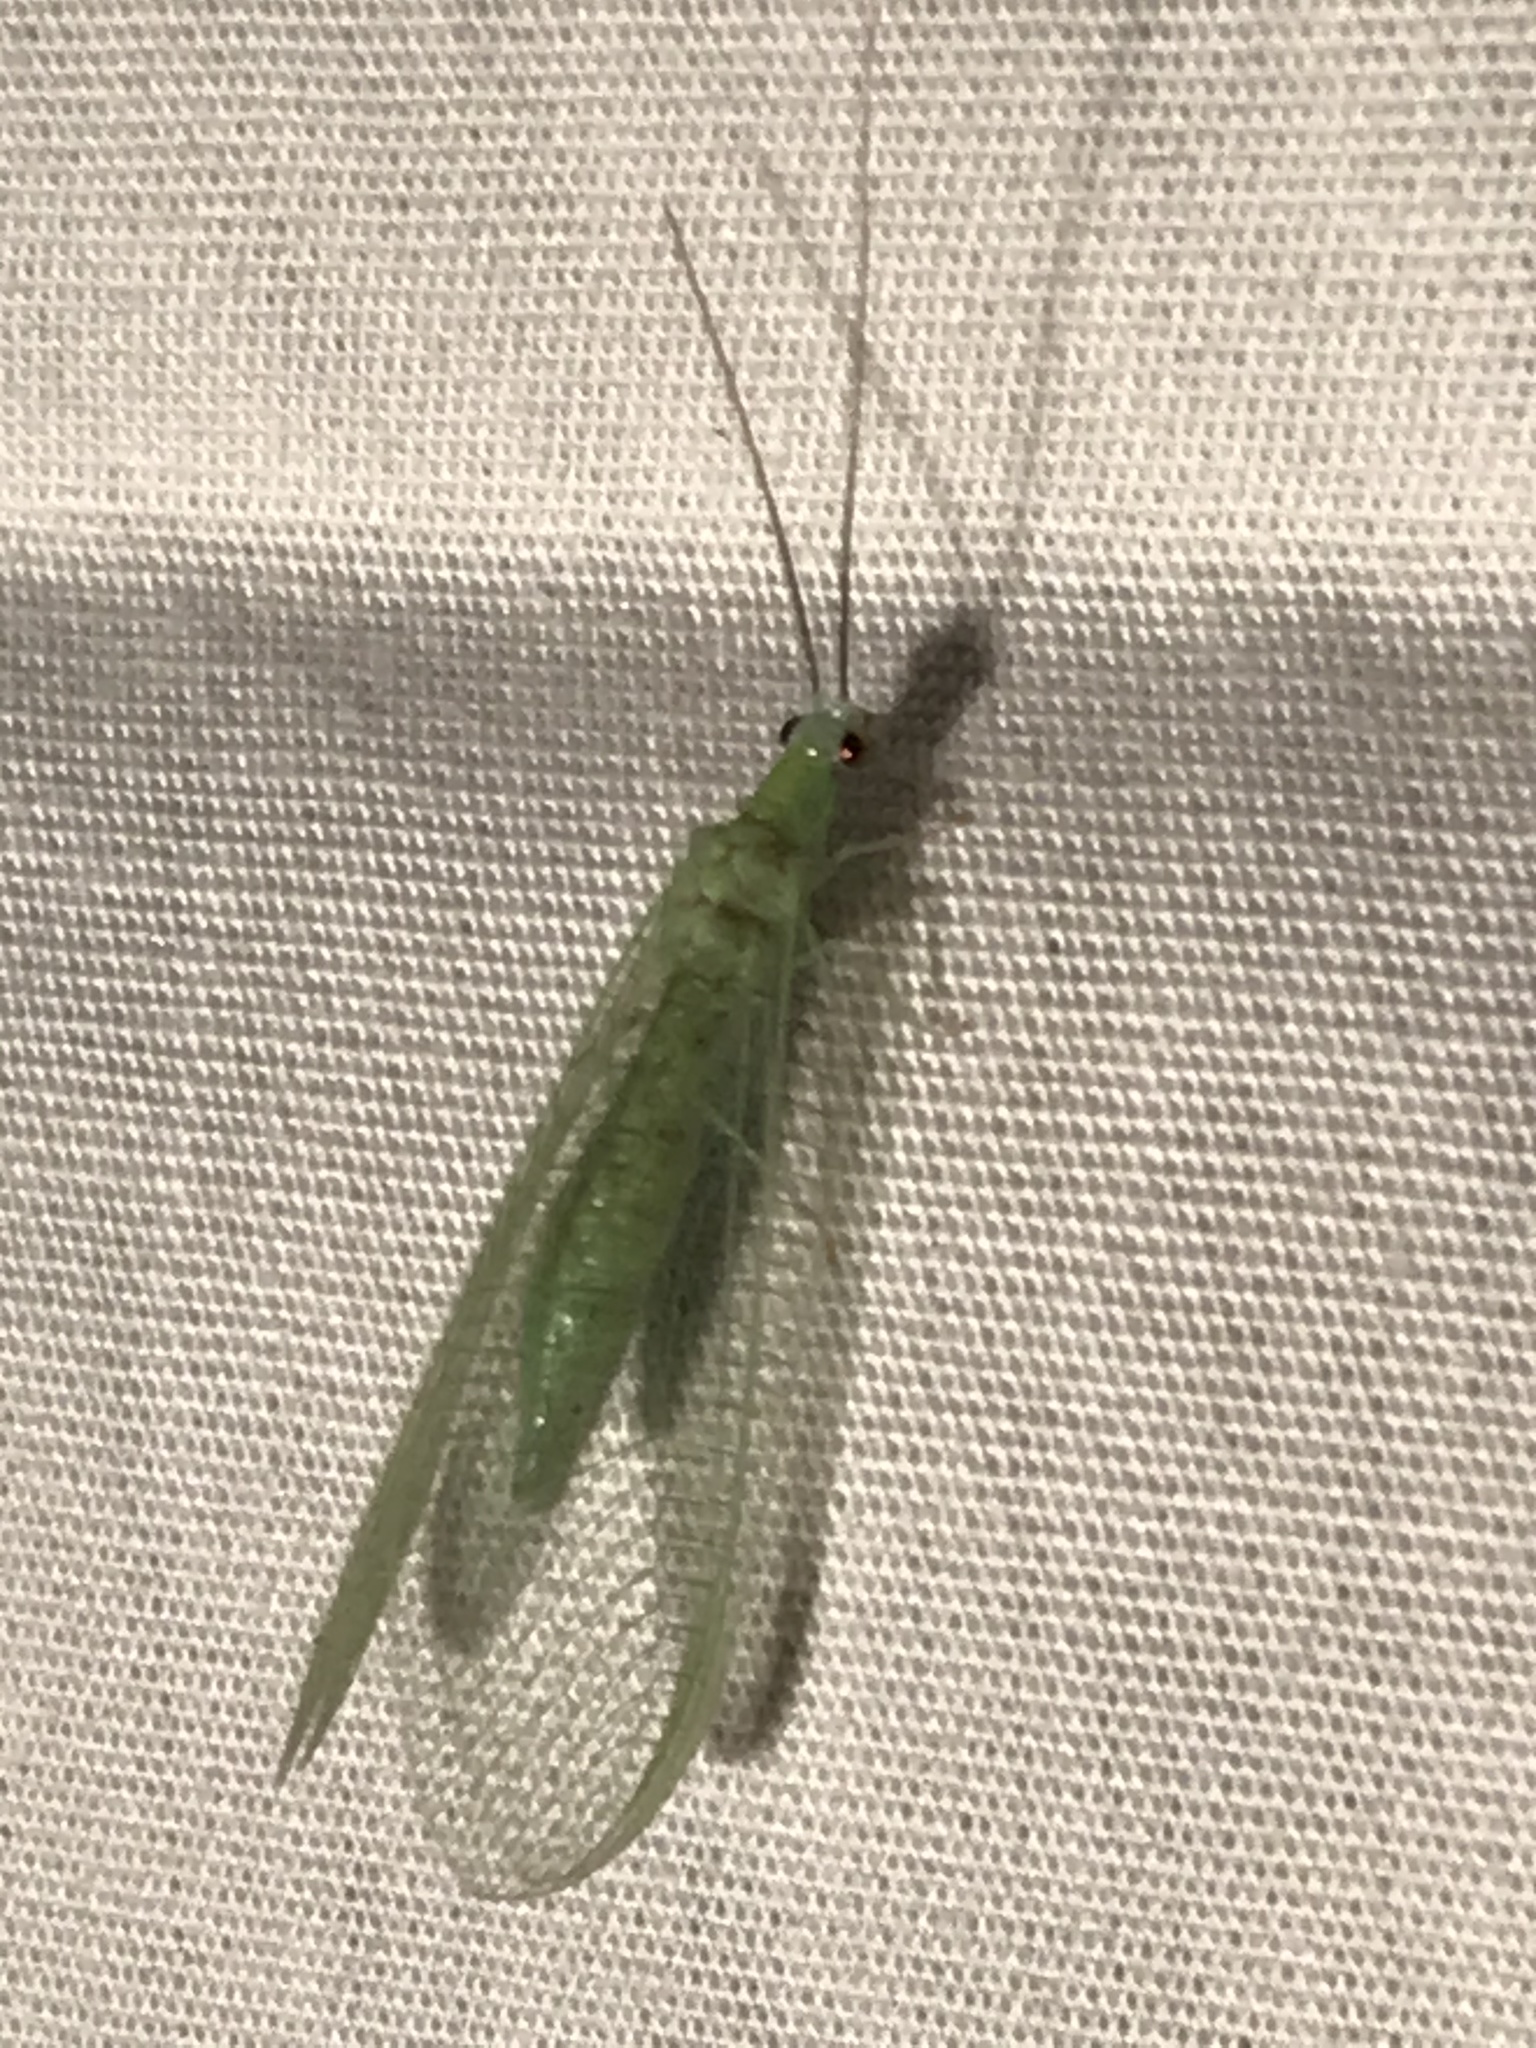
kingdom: Animalia
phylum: Arthropoda
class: Insecta
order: Neuroptera
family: Chrysopidae
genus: Chrysopa
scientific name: Chrysopa nigricornis
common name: Black-horned green lacewing
